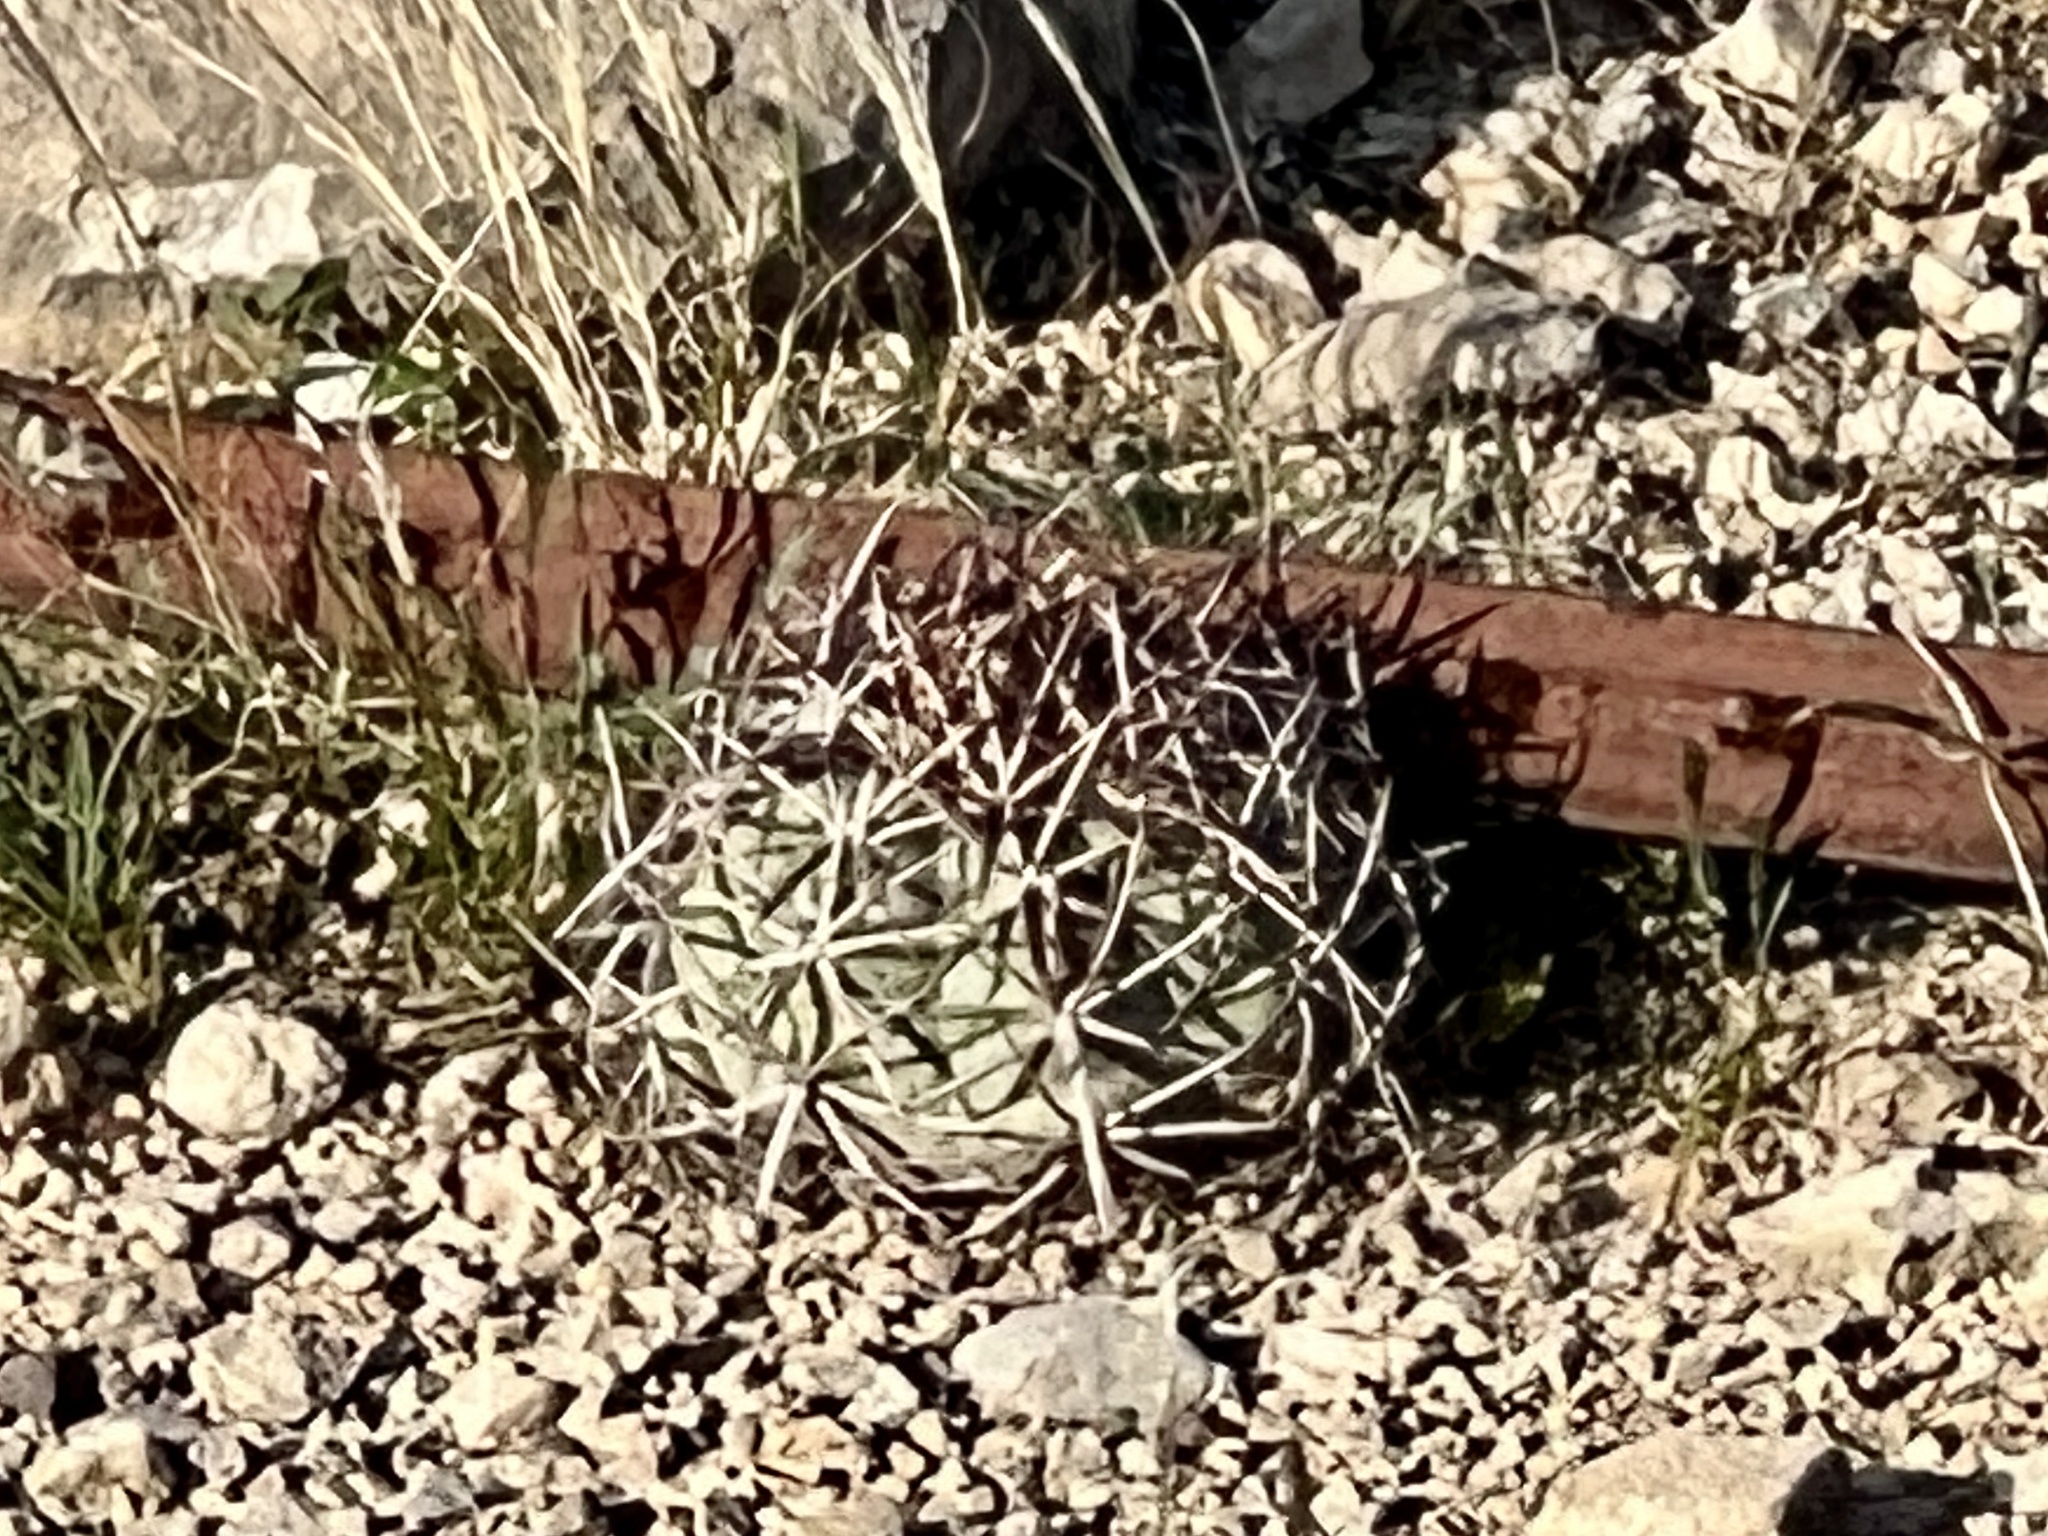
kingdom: Plantae
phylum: Tracheophyta
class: Magnoliopsida
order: Caryophyllales
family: Cactaceae
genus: Echinocactus
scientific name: Echinocactus horizonthalonius
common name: Devilshead
